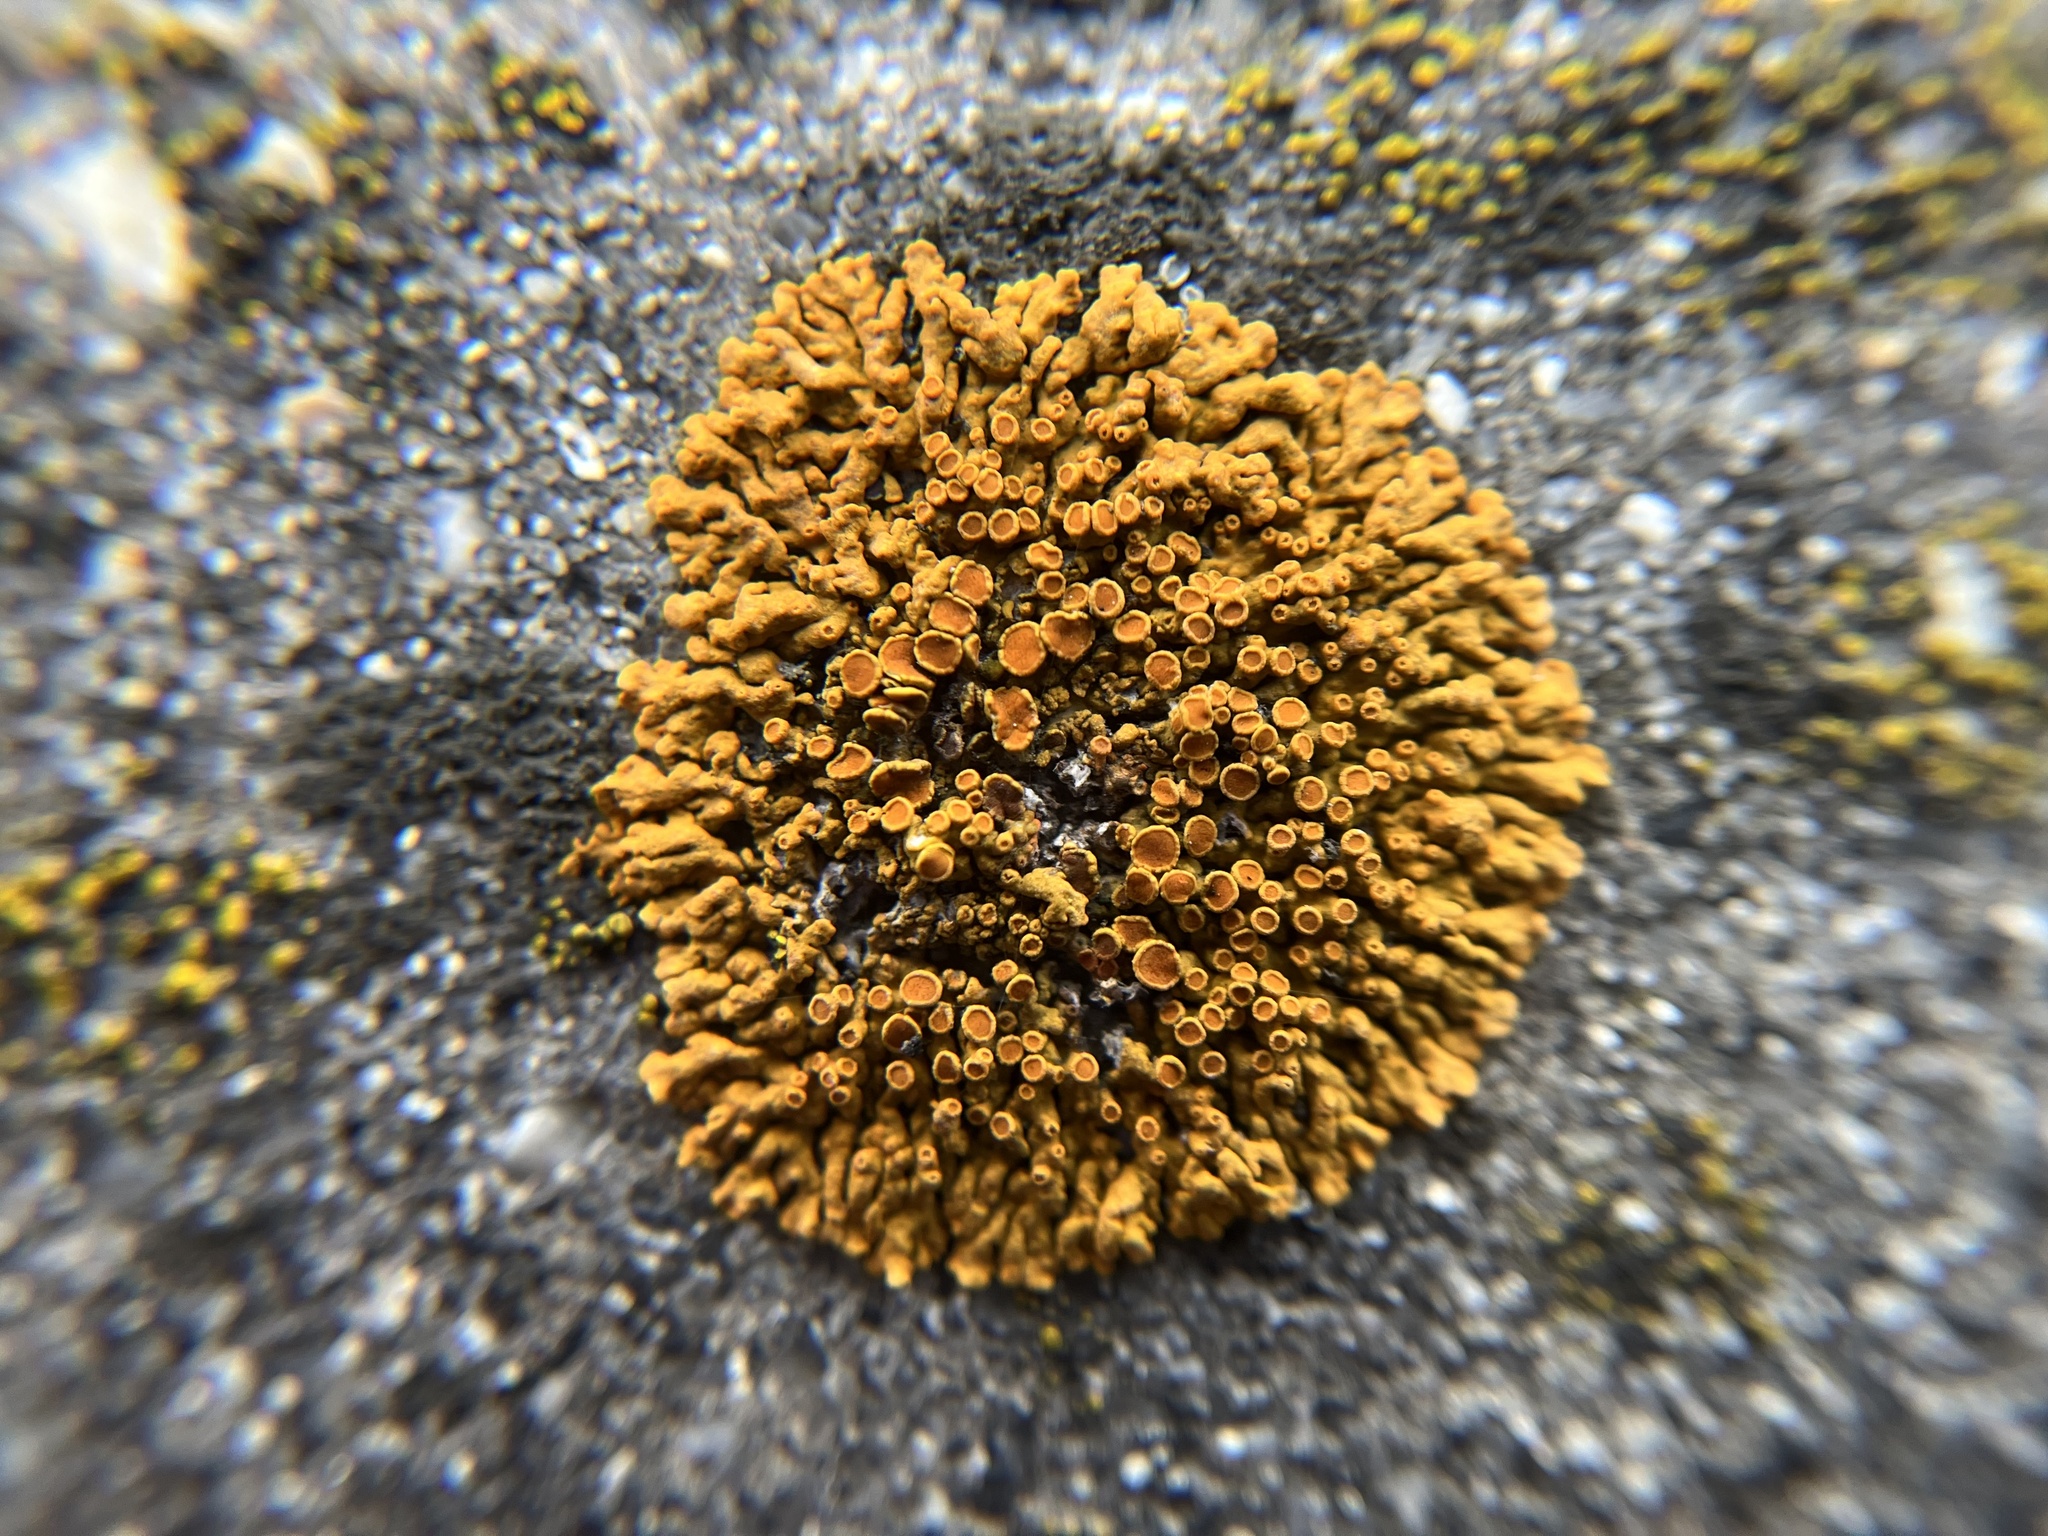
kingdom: Fungi
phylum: Ascomycota
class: Lecanoromycetes
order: Teloschistales
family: Teloschistaceae
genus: Xanthoria
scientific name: Xanthoria elegans
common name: Elegant sunburst lichen
